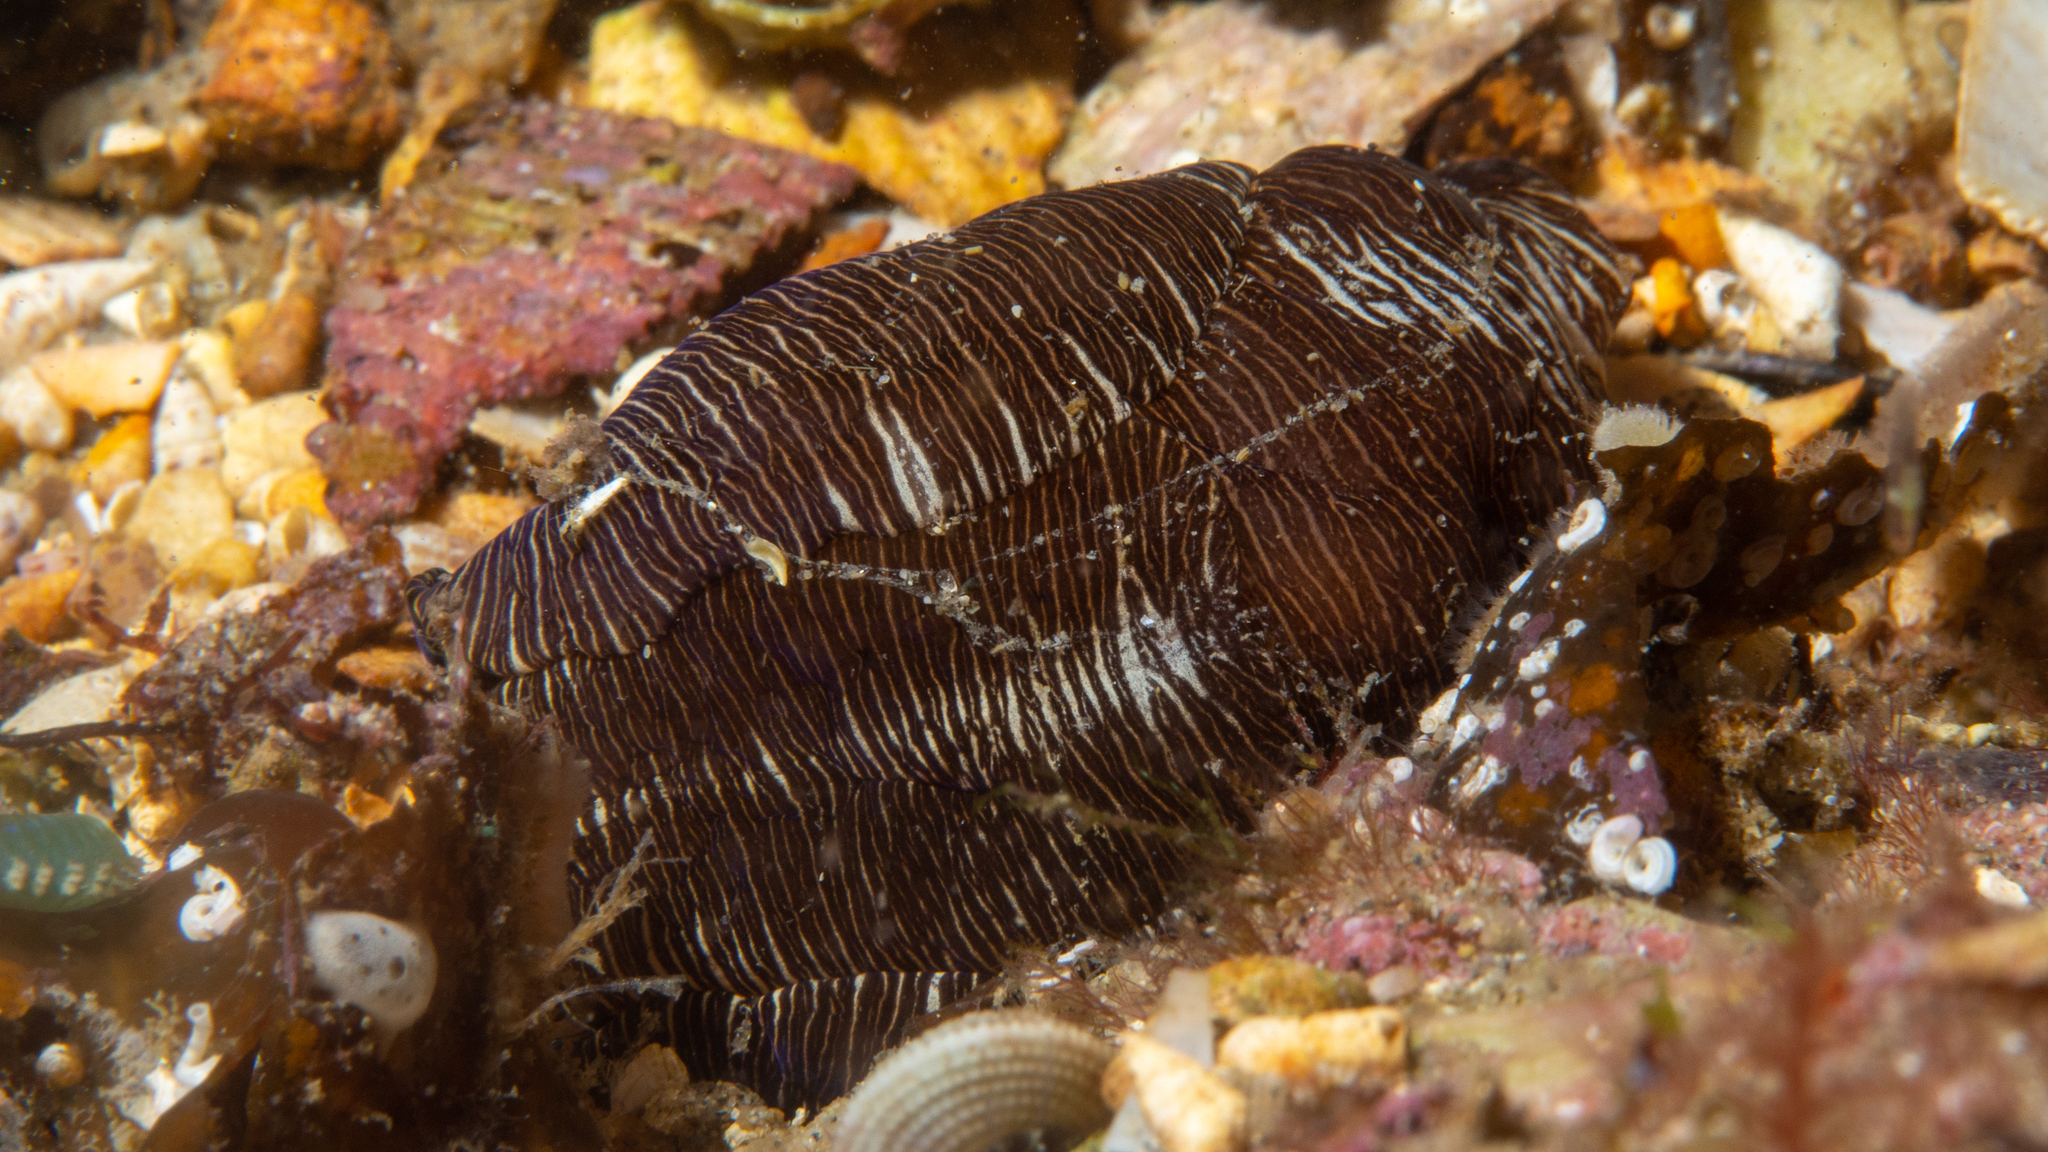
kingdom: Animalia
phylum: Mollusca
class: Gastropoda
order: Cephalaspidea
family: Aglajidae
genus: Tubulophilinopsis
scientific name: Tubulophilinopsis lineolata
